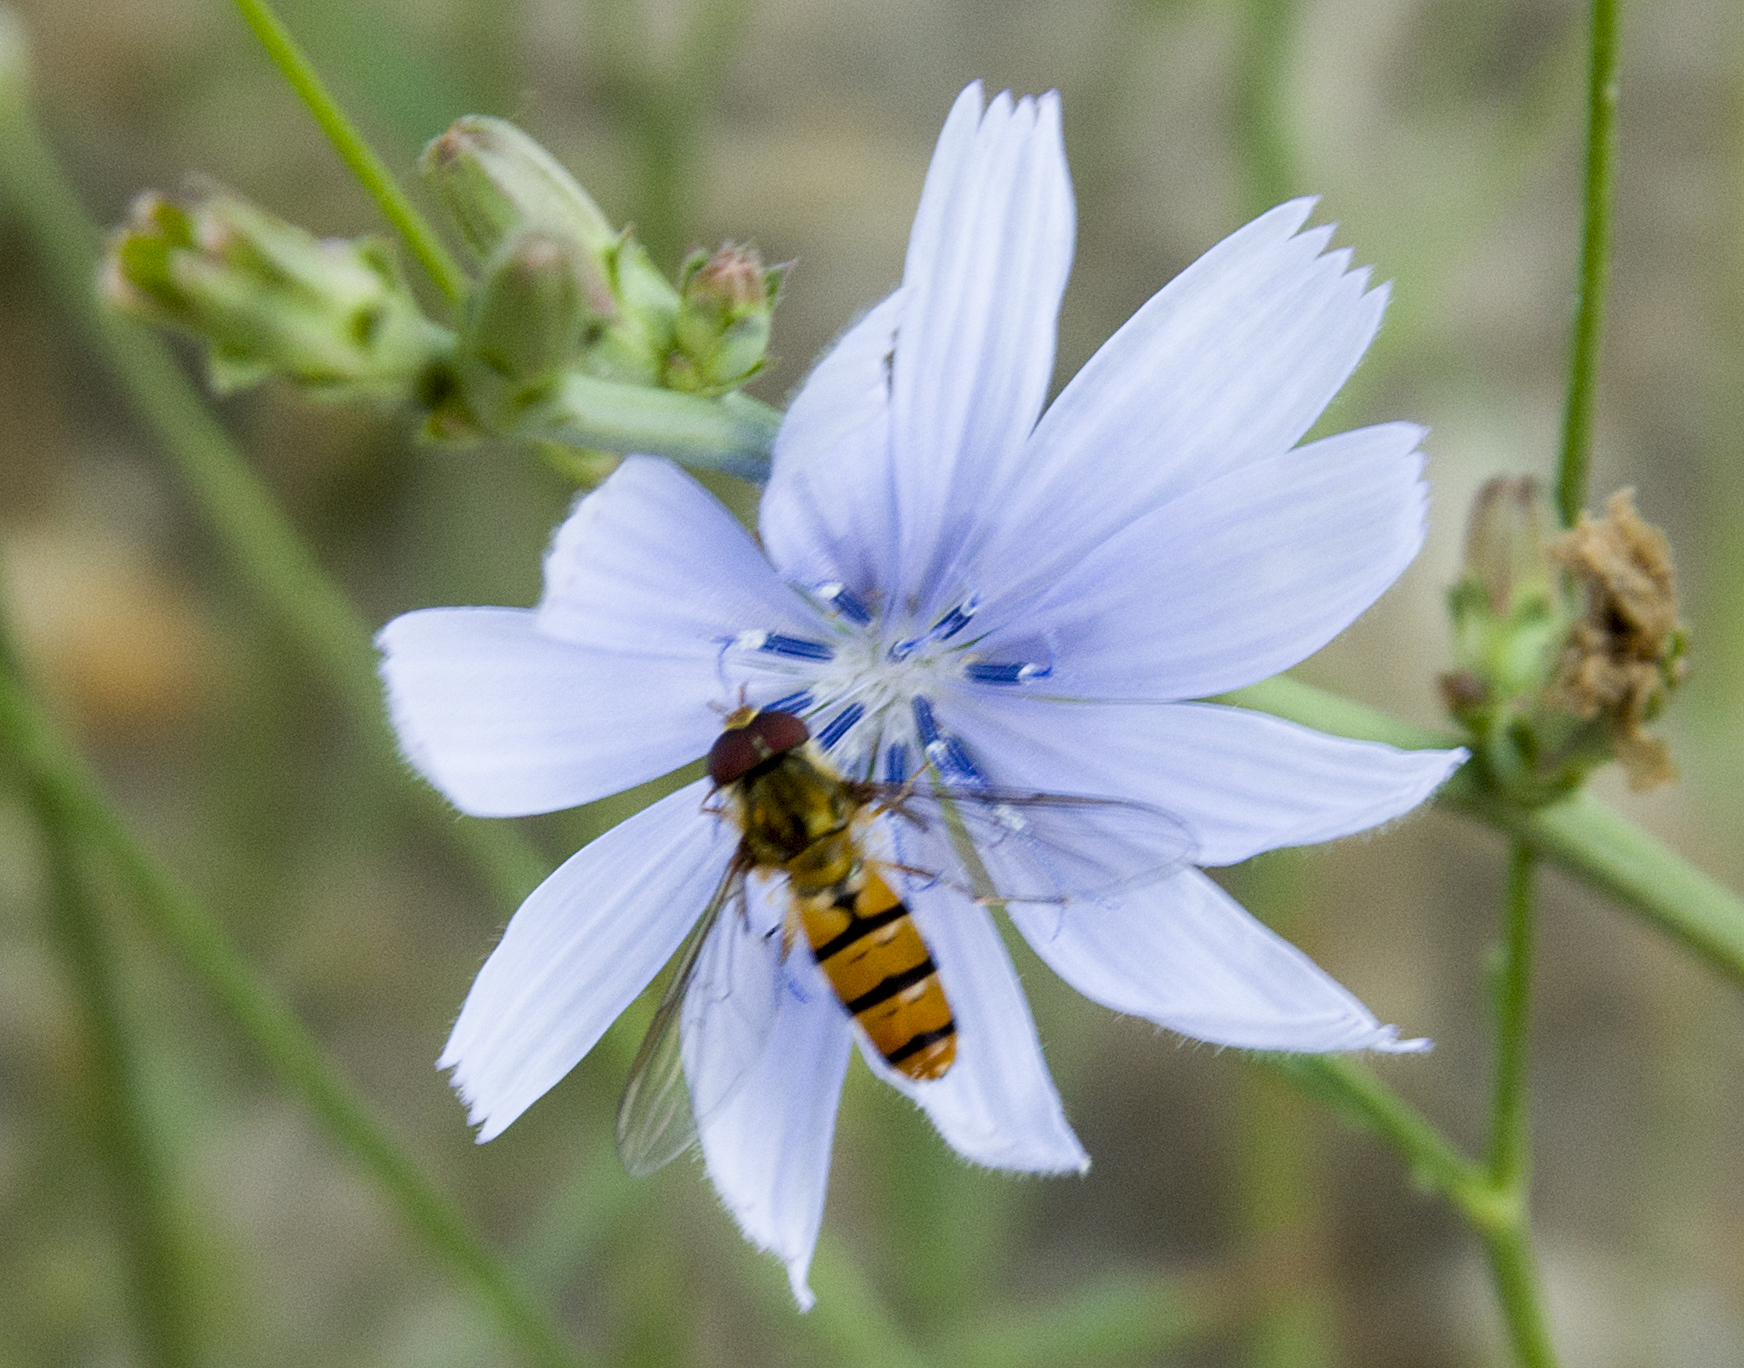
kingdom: Animalia
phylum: Arthropoda
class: Insecta
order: Diptera
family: Syrphidae
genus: Episyrphus
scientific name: Episyrphus balteatus
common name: Marmalade hoverfly
